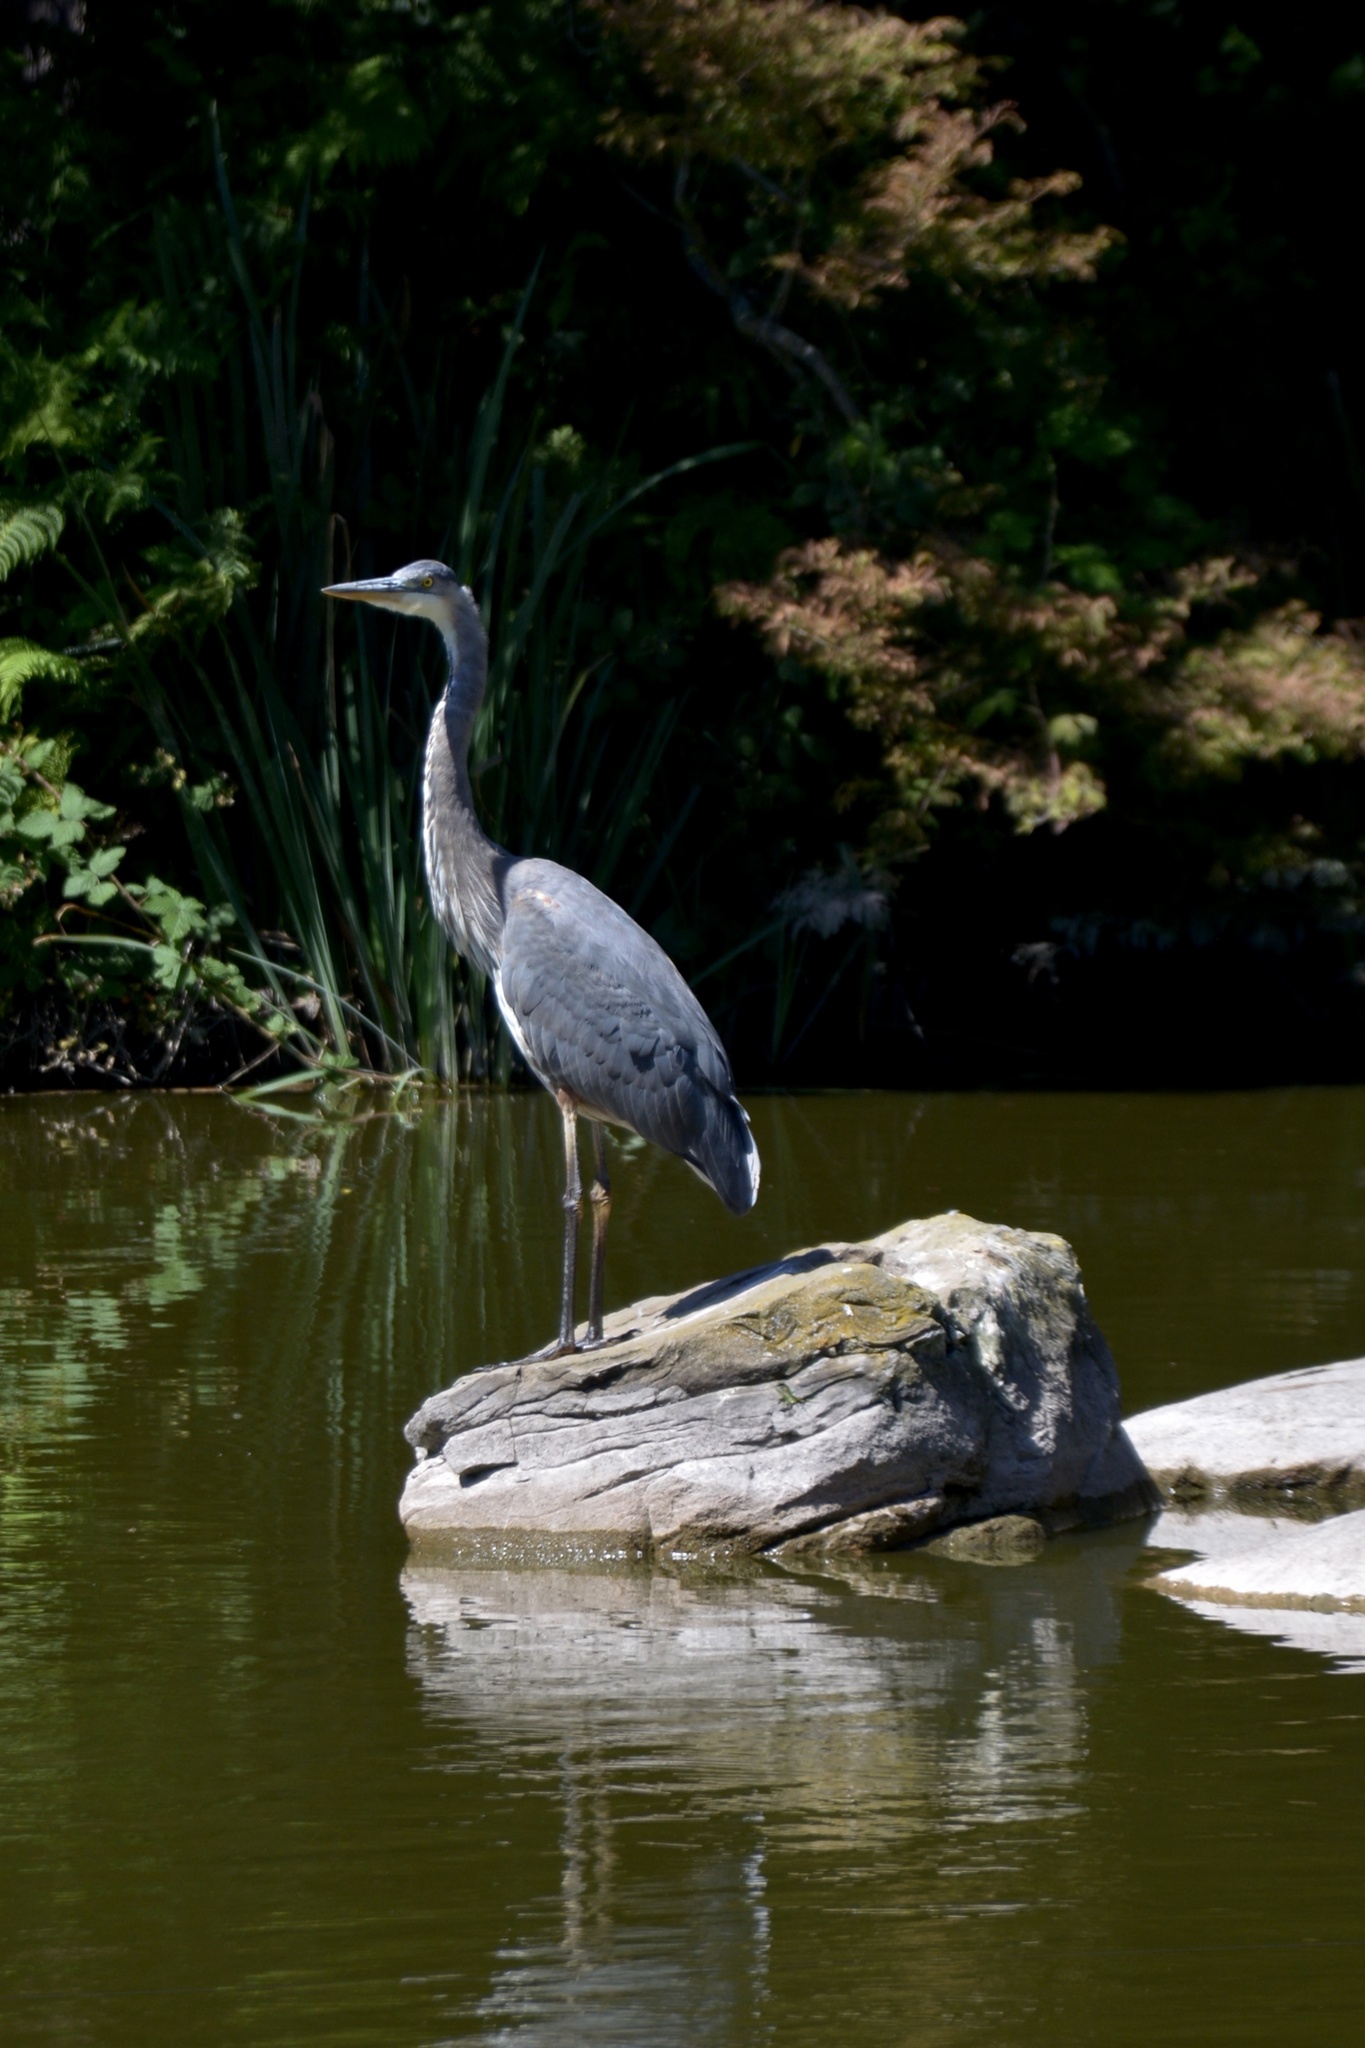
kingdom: Animalia
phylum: Chordata
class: Aves
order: Pelecaniformes
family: Ardeidae
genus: Ardea
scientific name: Ardea herodias
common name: Great blue heron
